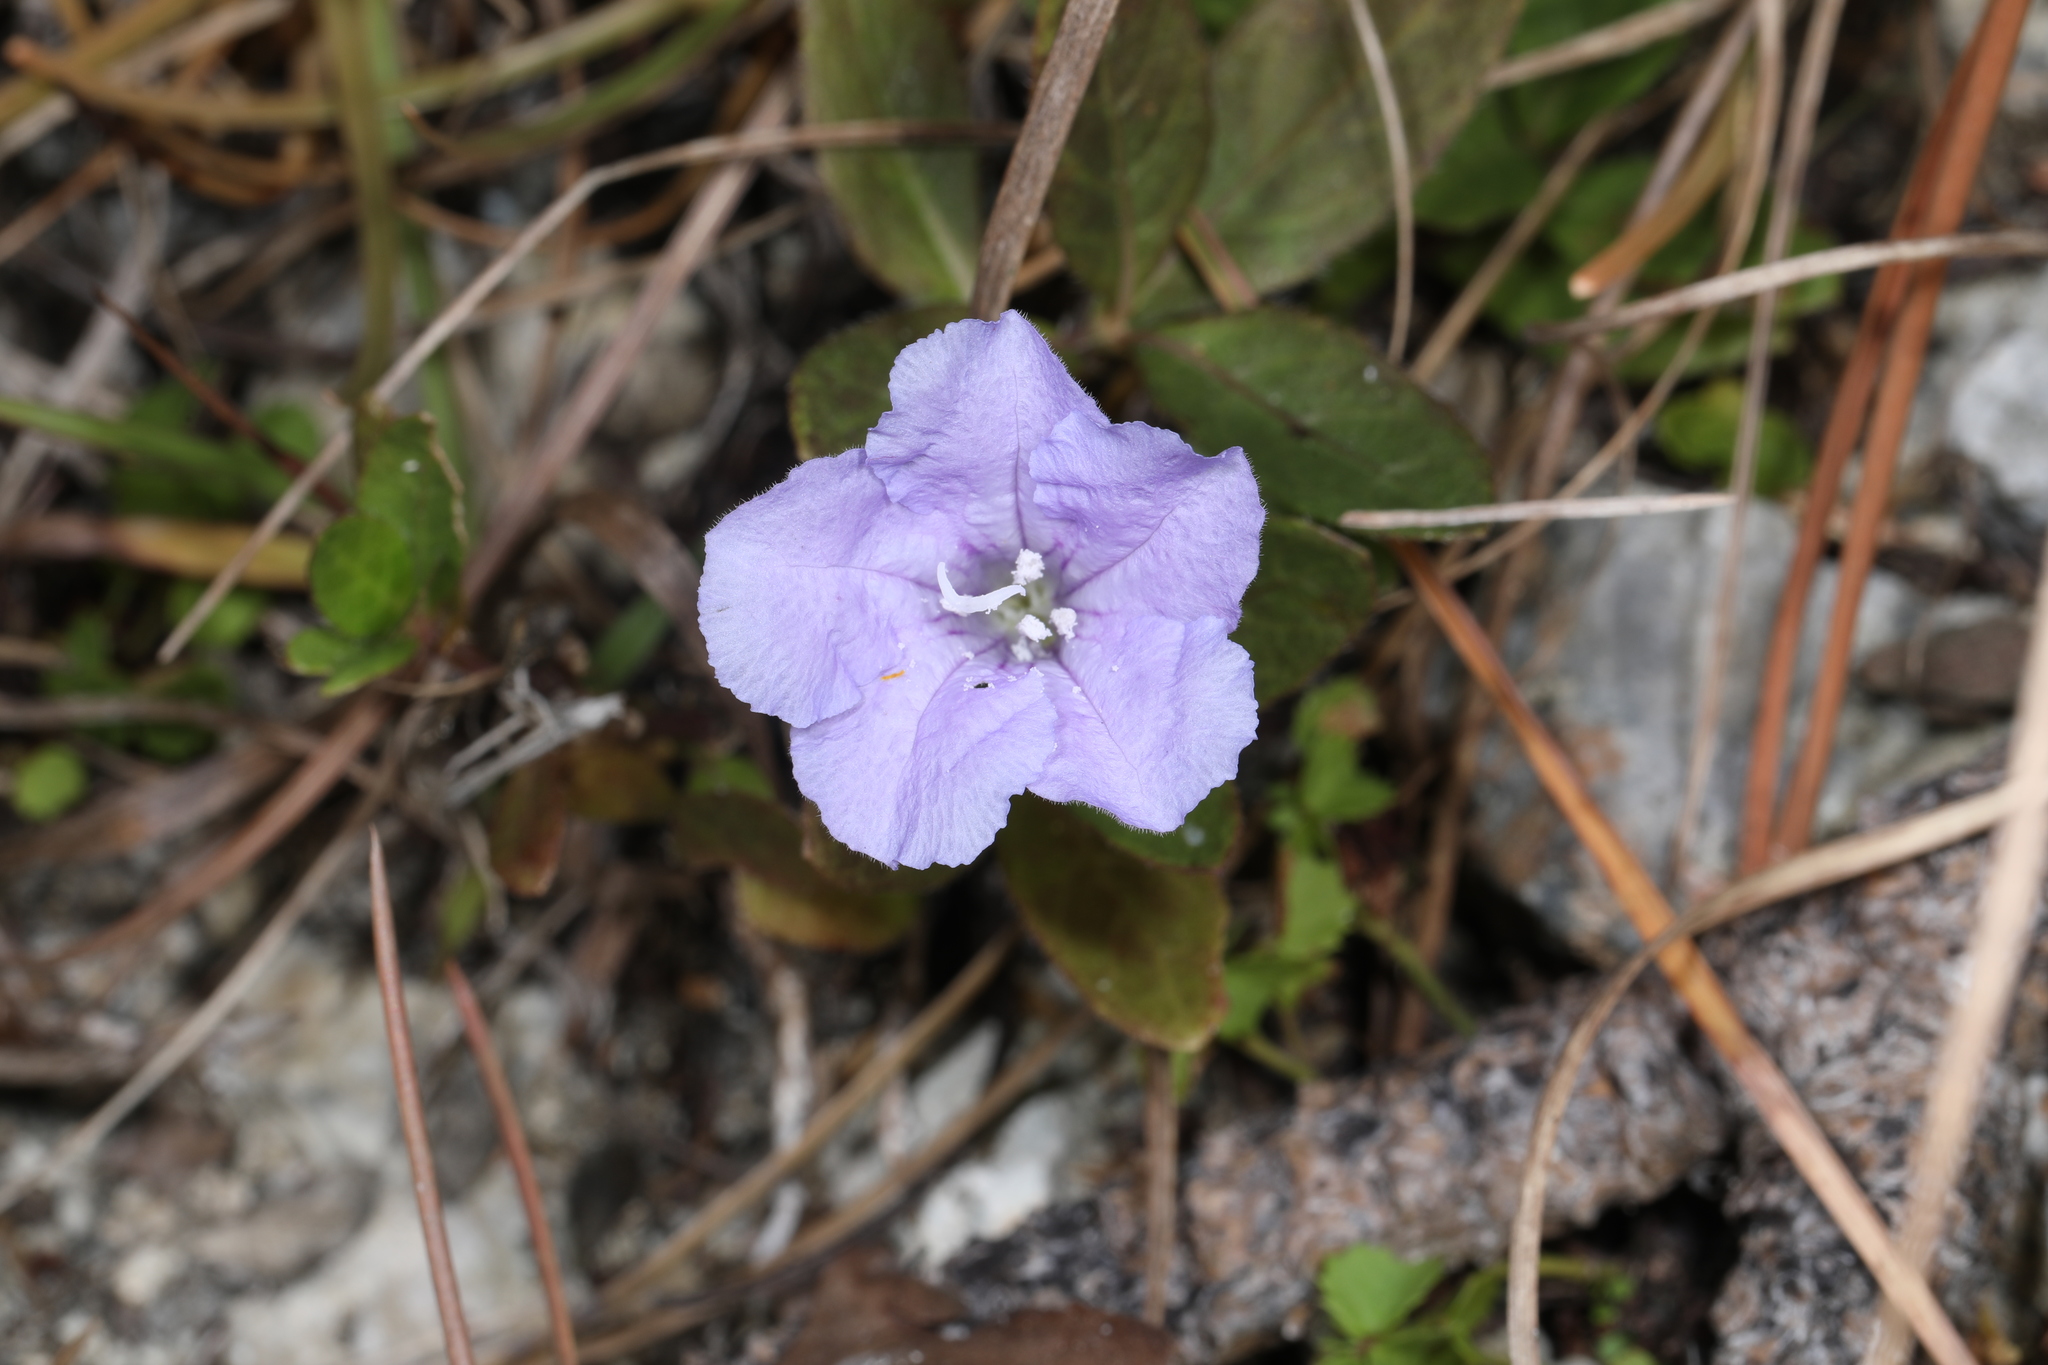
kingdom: Plantae
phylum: Tracheophyta
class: Magnoliopsida
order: Lamiales
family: Acanthaceae
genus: Ruellia
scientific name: Ruellia caroliniensis
